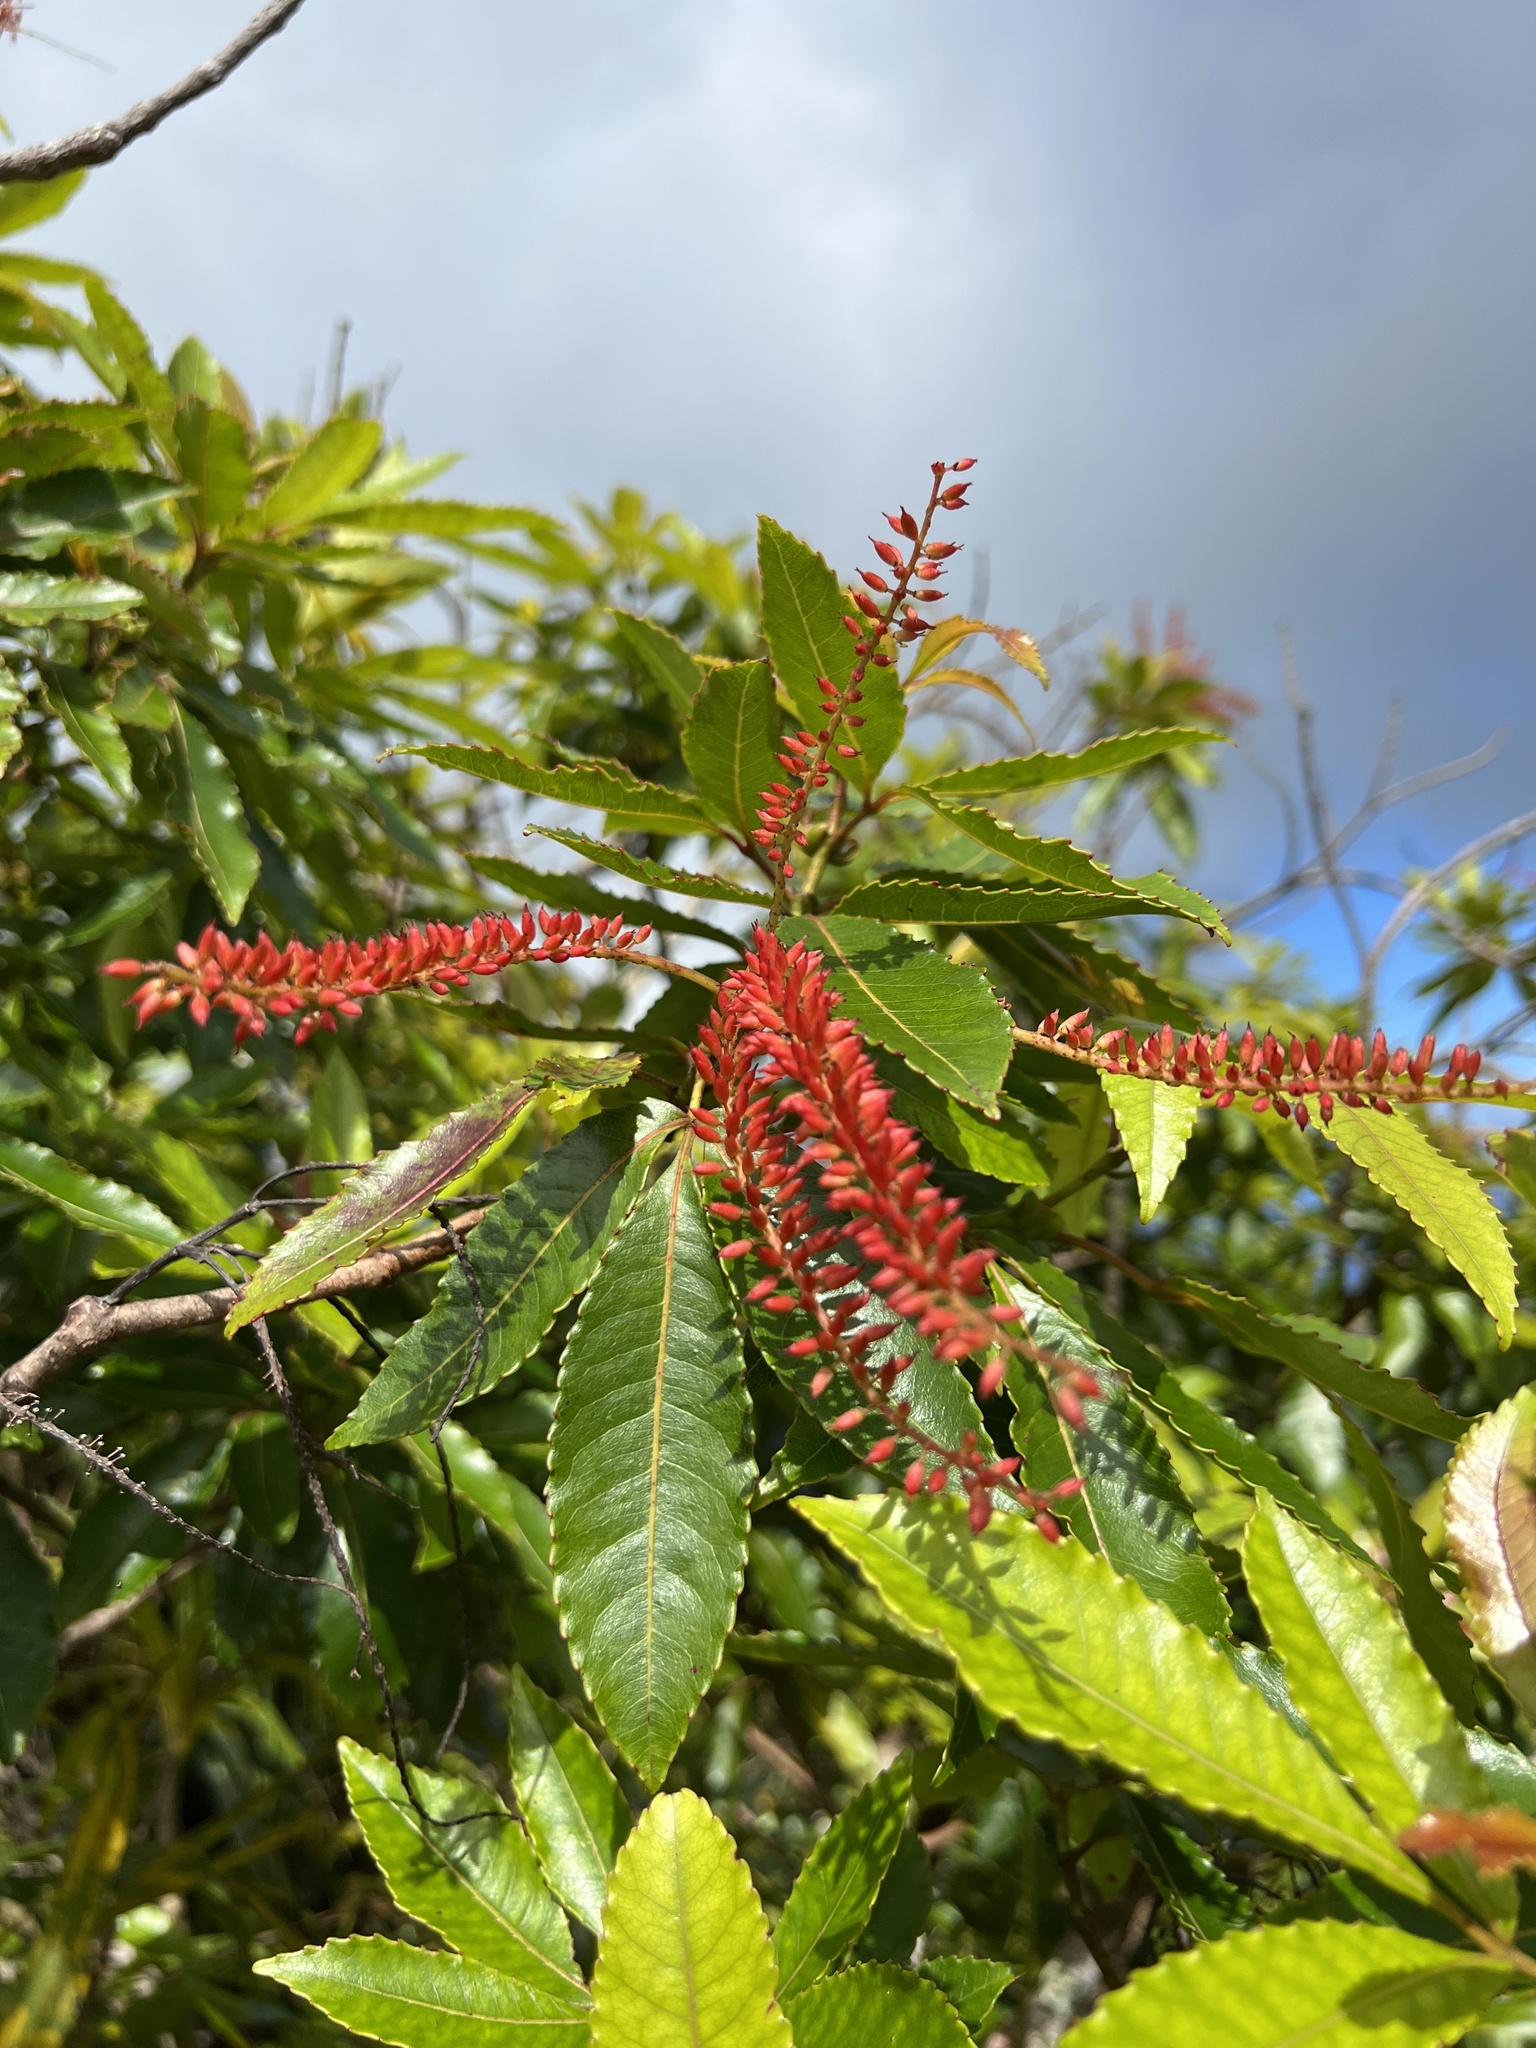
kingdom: Plantae
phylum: Tracheophyta
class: Magnoliopsida
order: Oxalidales
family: Cunoniaceae
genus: Pterophylla
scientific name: Pterophylla samoensis
